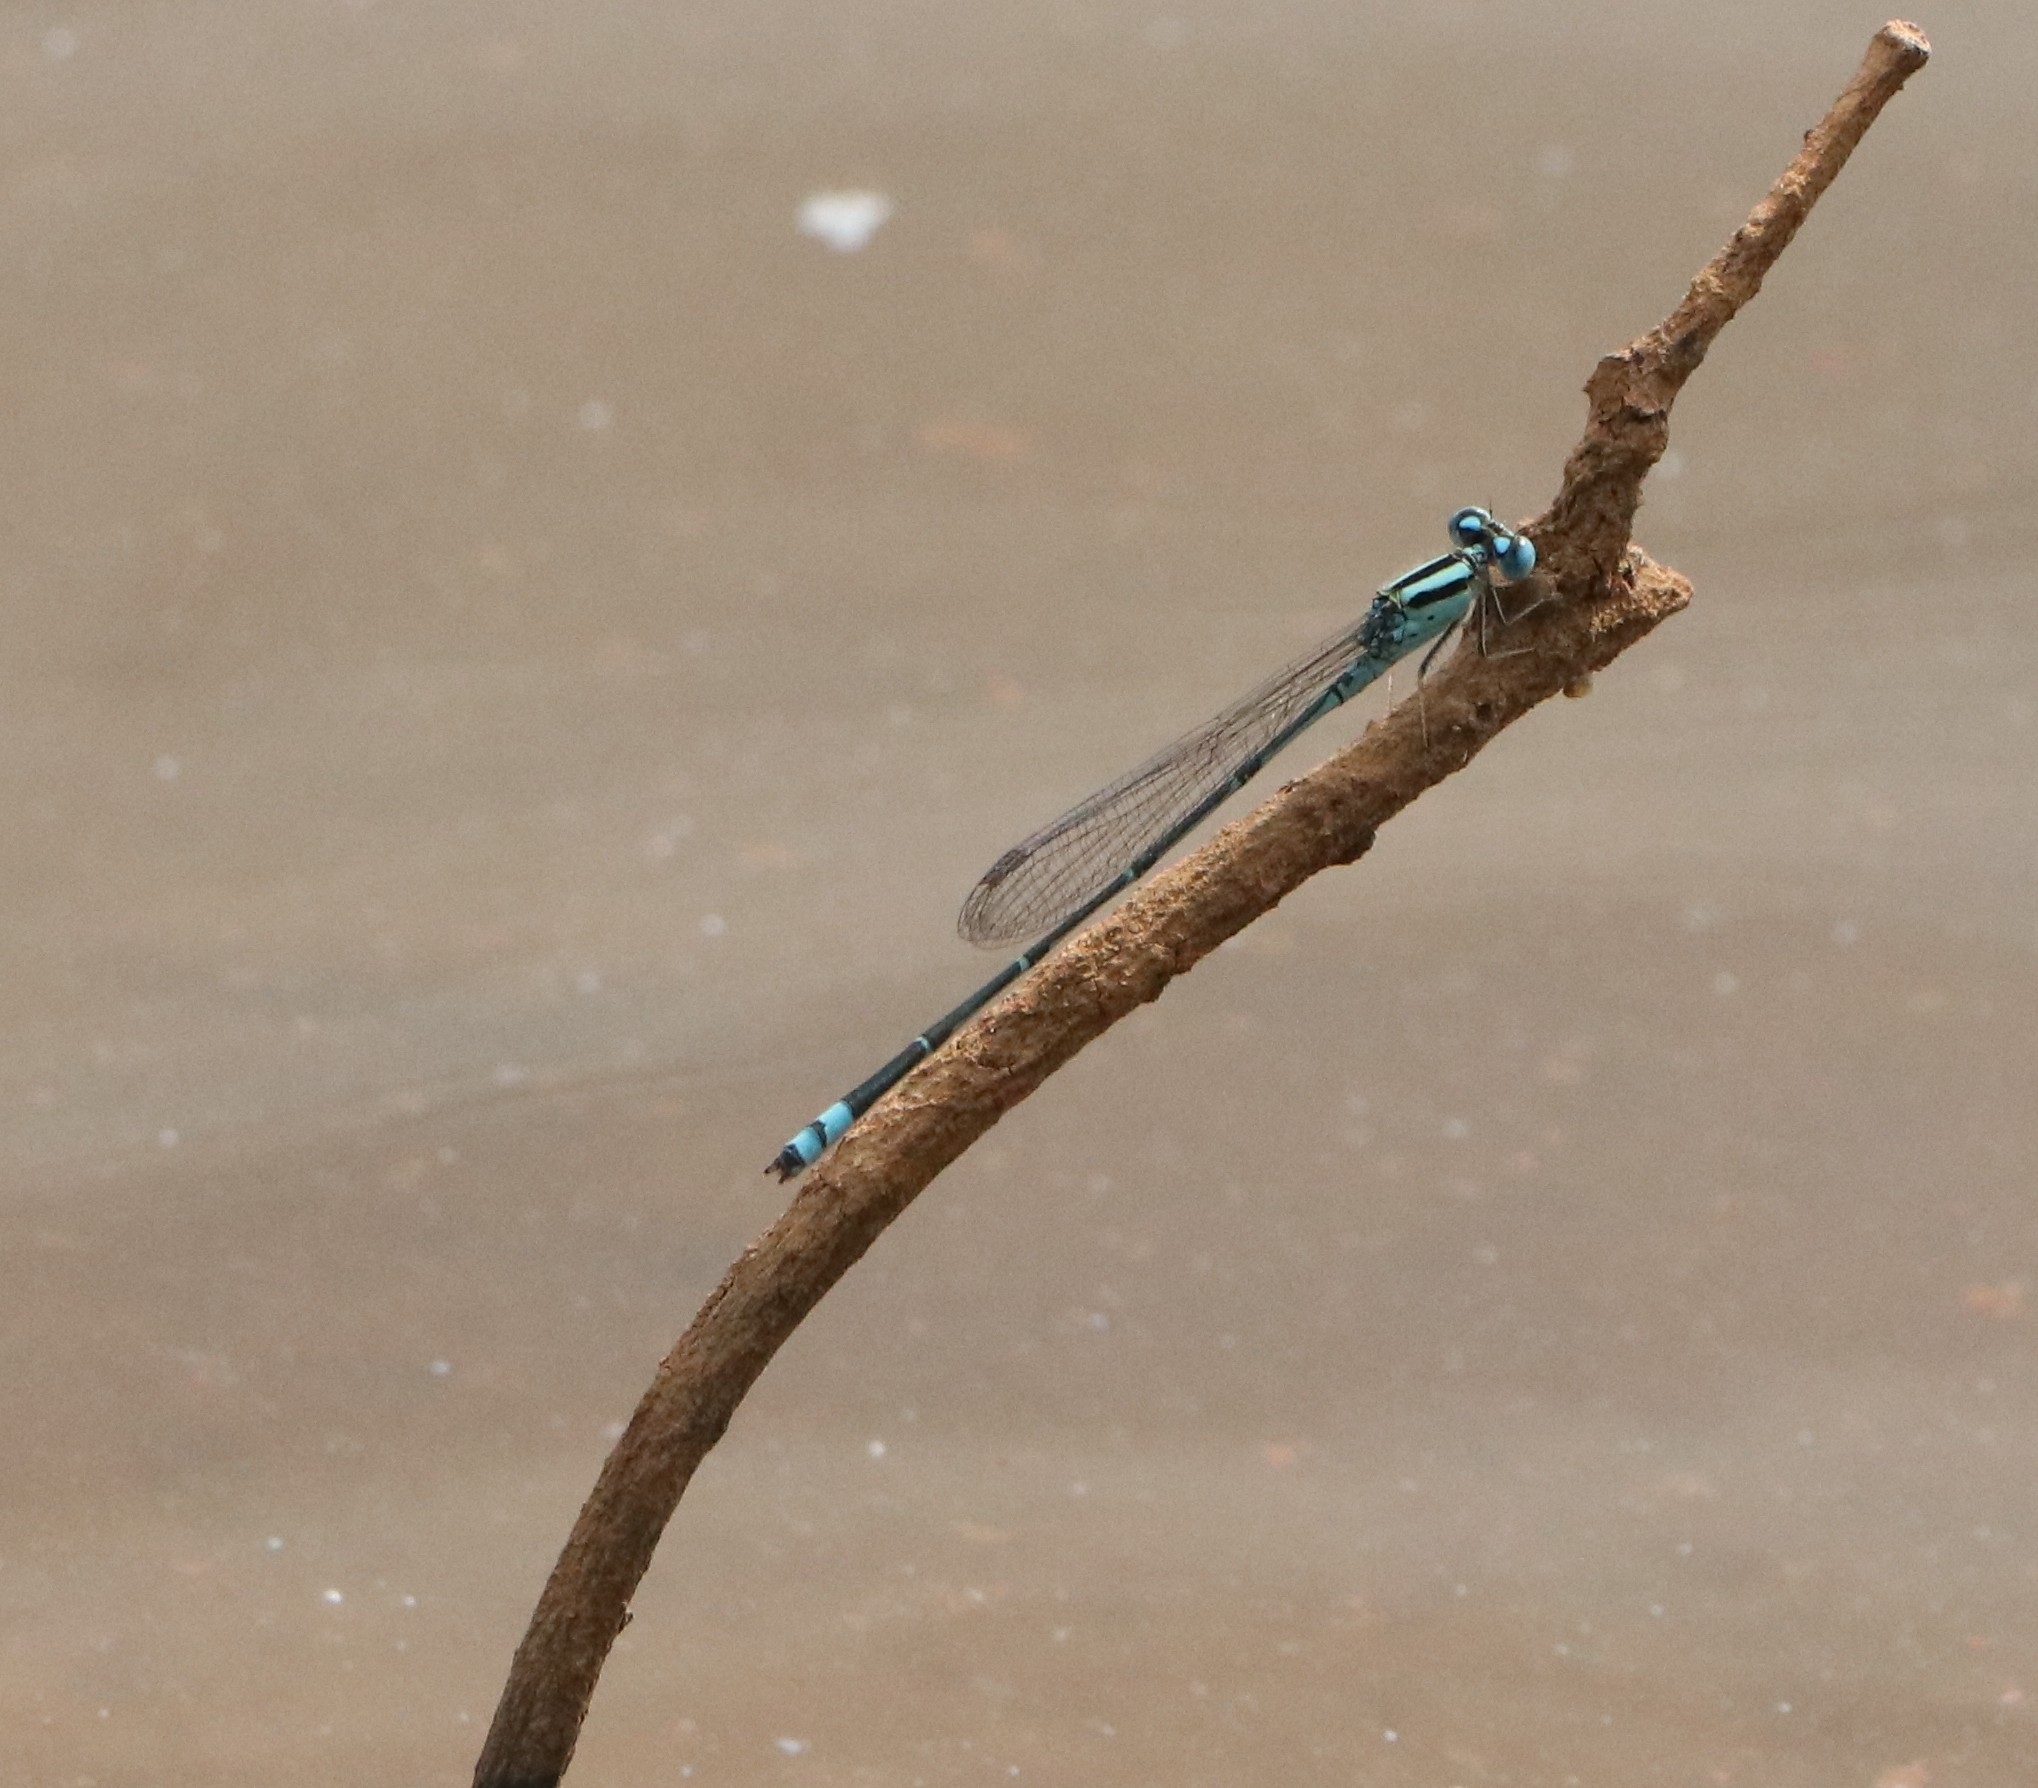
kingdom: Animalia
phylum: Arthropoda
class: Insecta
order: Odonata
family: Coenagrionidae
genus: Pseudagrion
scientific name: Pseudagrion microcephalum
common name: Blue riverdamsel
